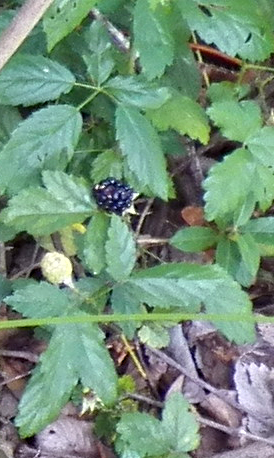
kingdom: Plantae
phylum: Tracheophyta
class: Magnoliopsida
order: Rosales
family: Rosaceae
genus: Rubus
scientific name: Rubus trivialis
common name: Southern dewberry
